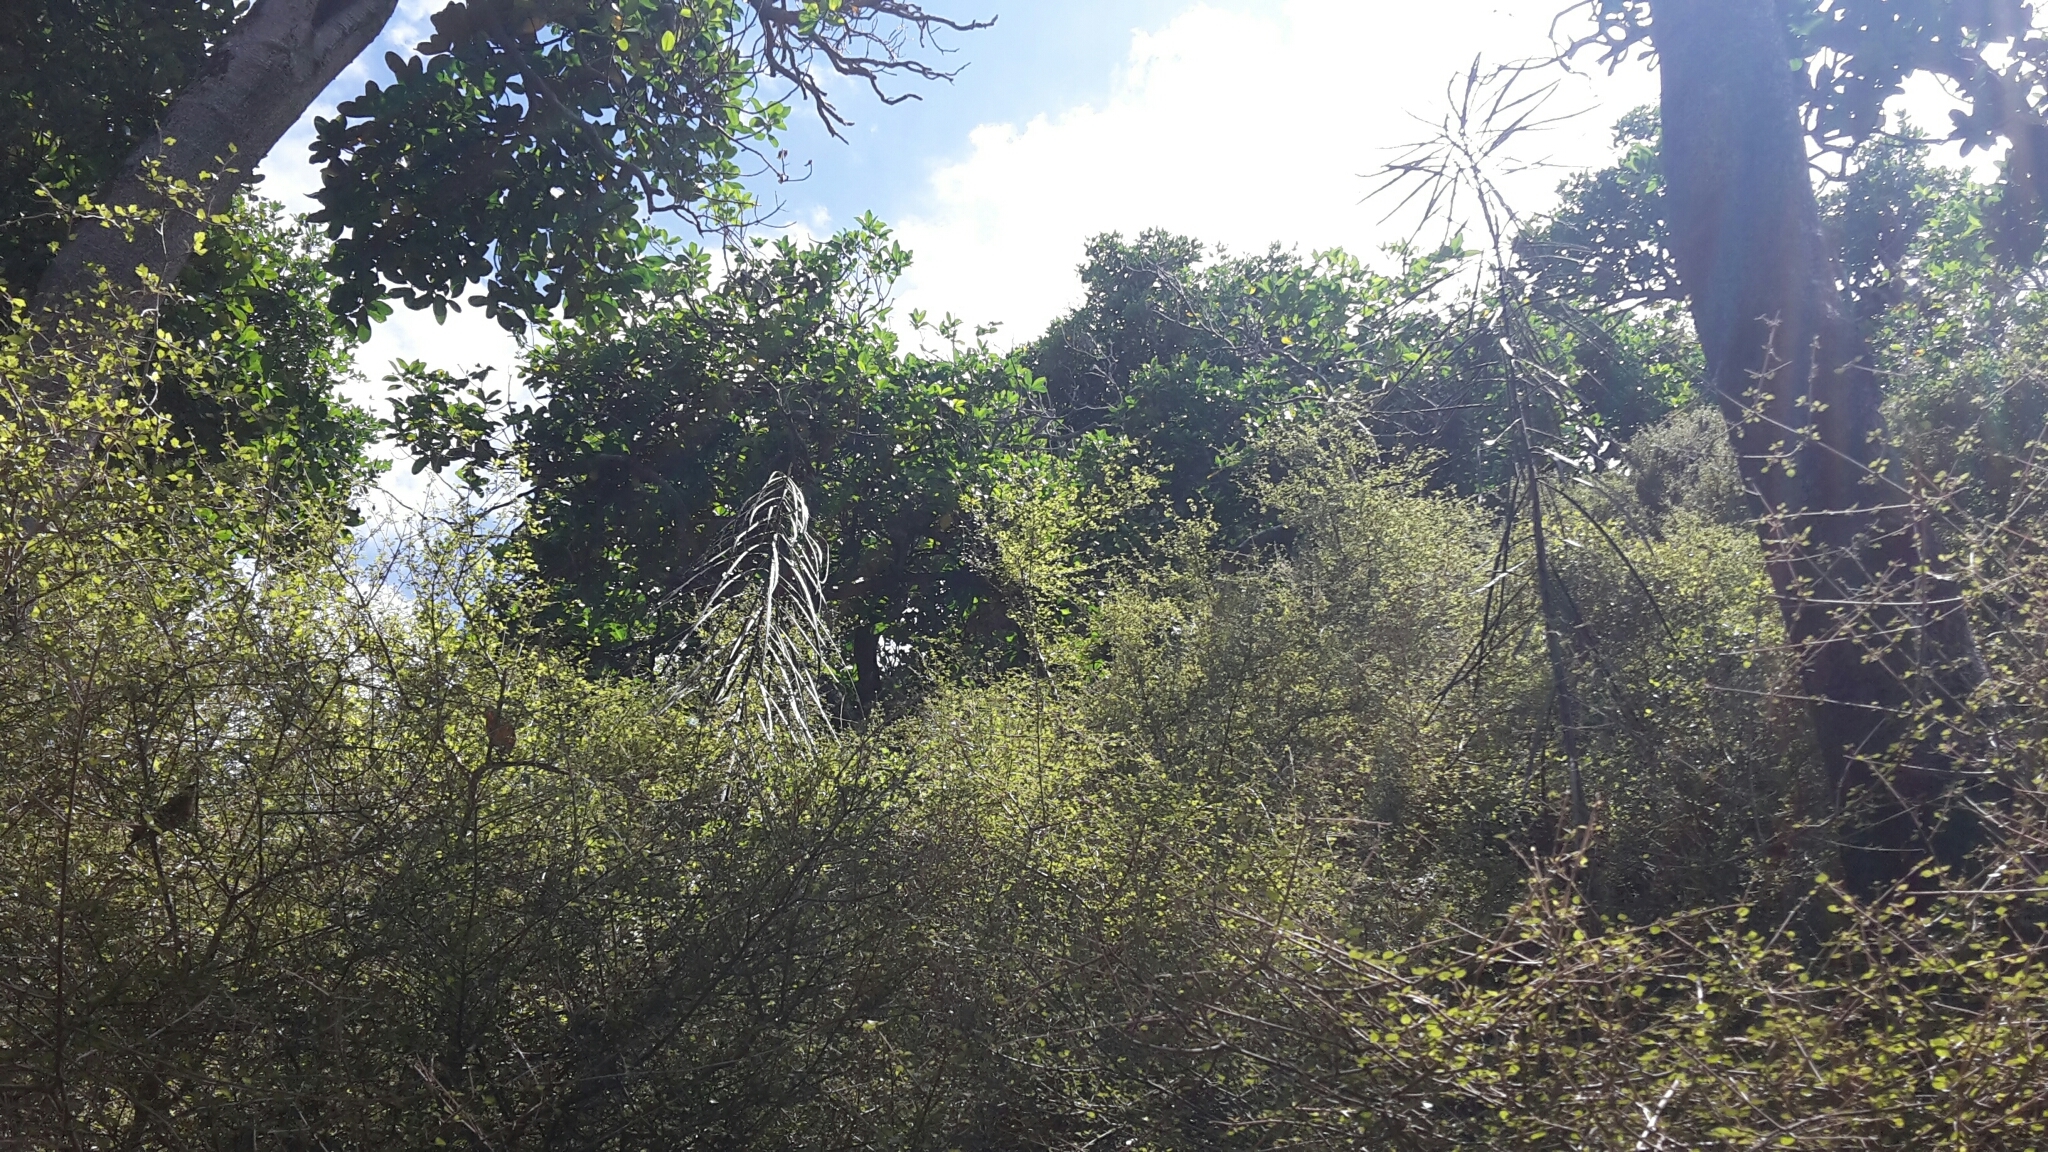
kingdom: Plantae
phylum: Tracheophyta
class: Magnoliopsida
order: Apiales
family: Araliaceae
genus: Pseudopanax
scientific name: Pseudopanax crassifolius
